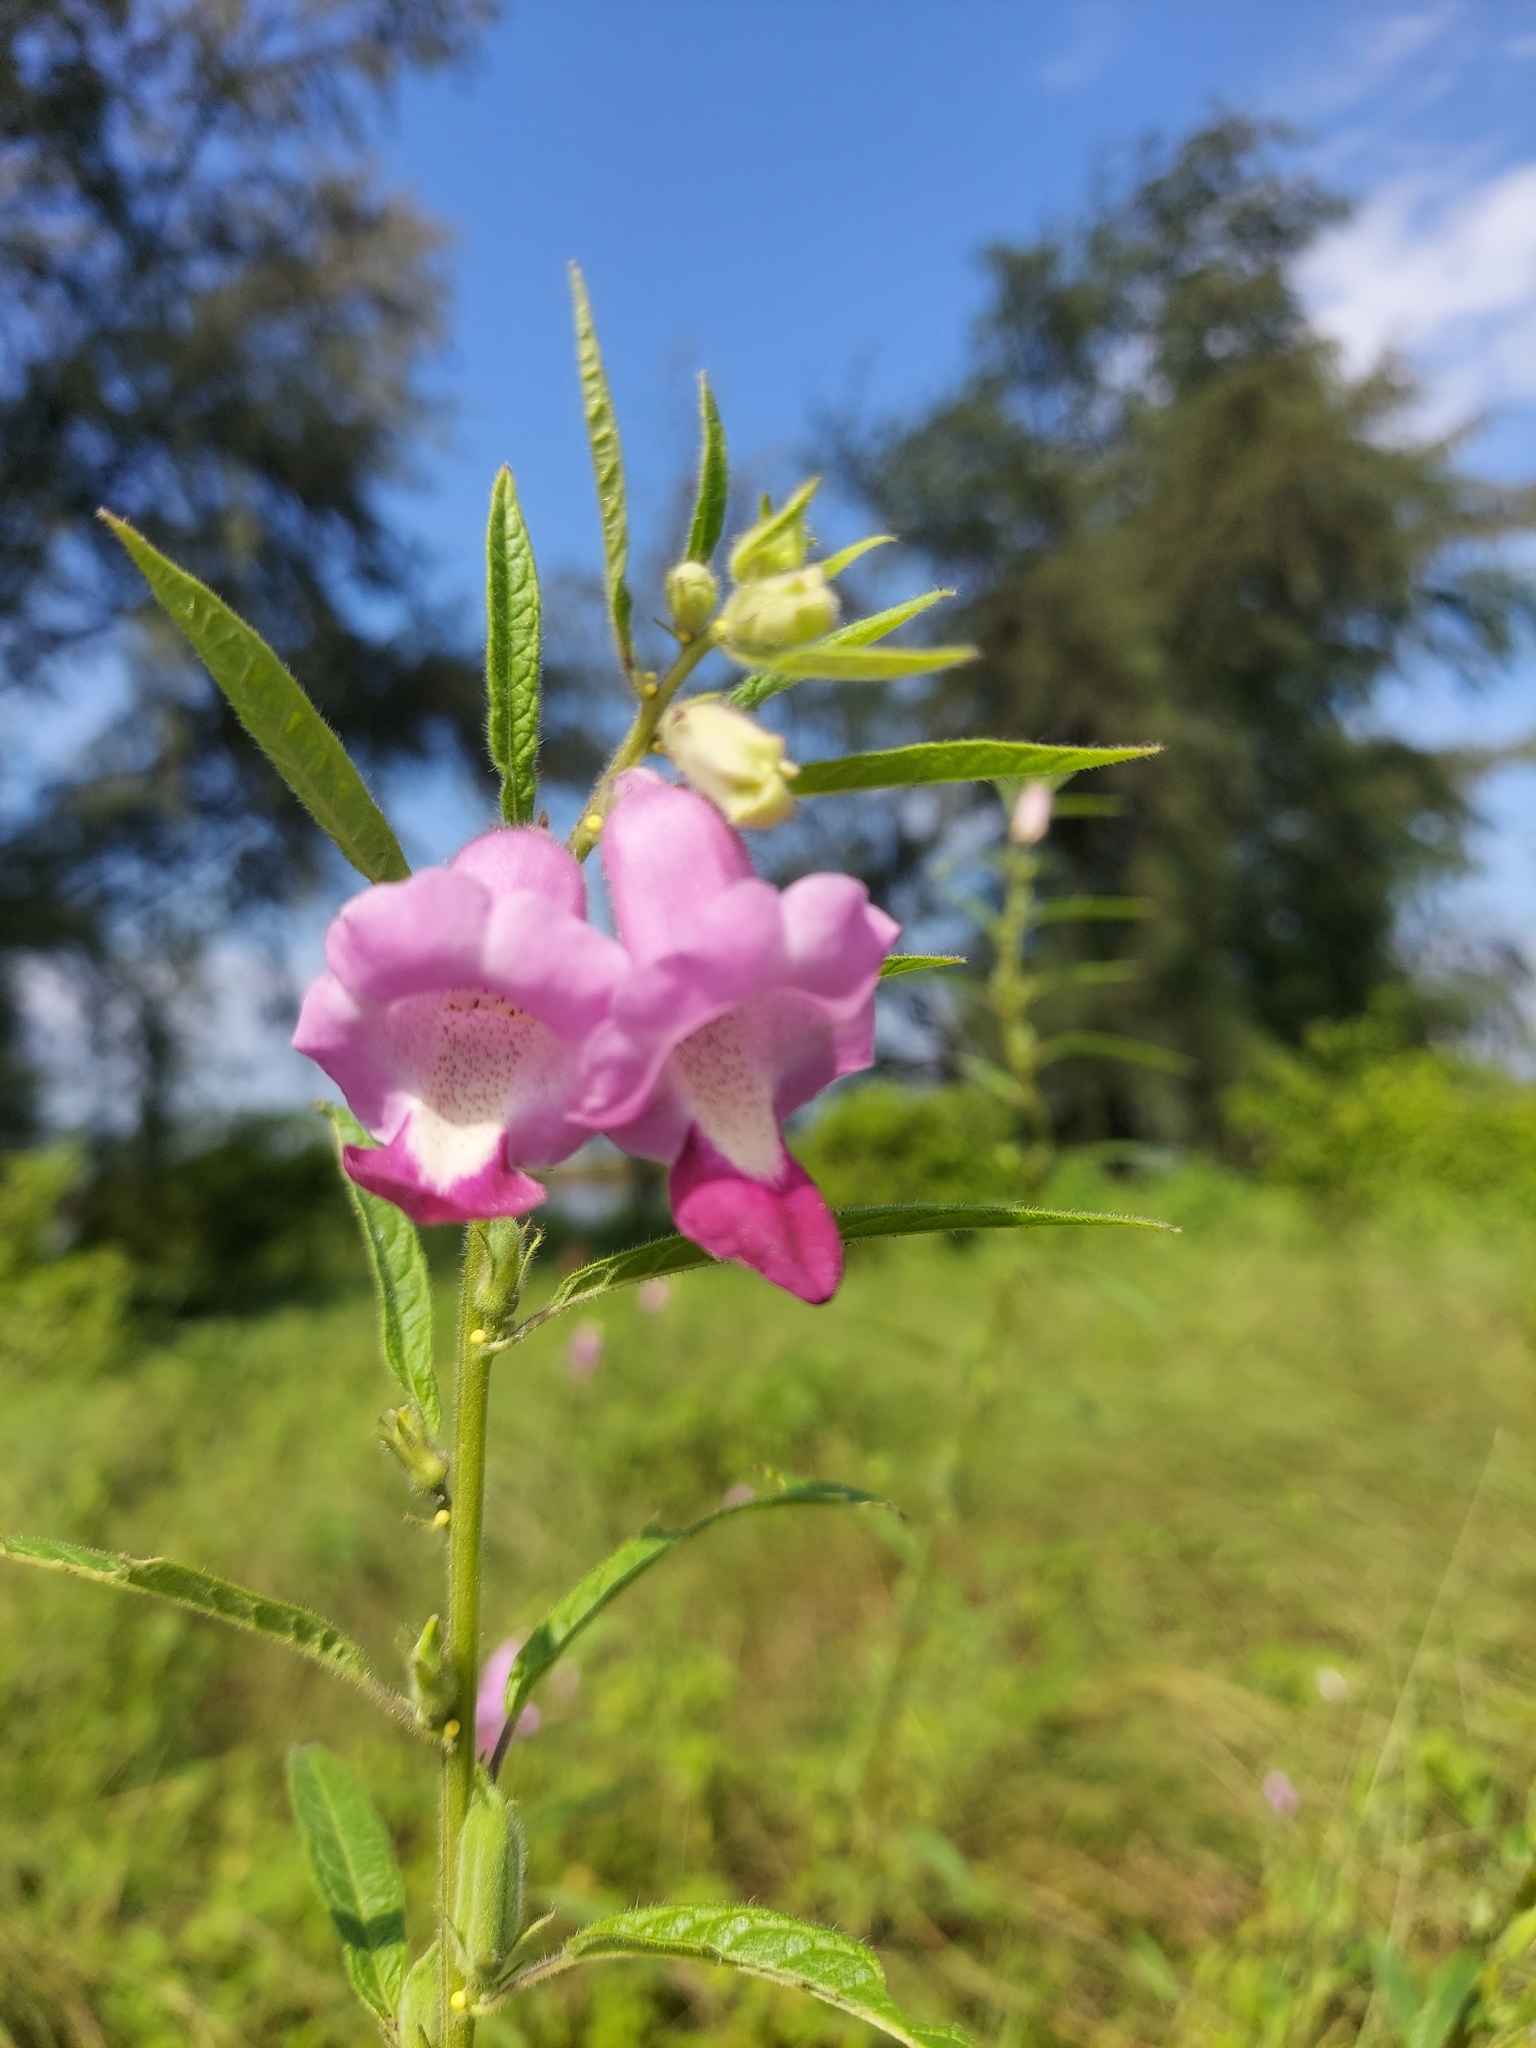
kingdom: Plantae
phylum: Tracheophyta
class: Magnoliopsida
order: Lamiales
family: Pedaliaceae
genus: Sesamum
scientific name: Sesamum indicum
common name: Sesame
